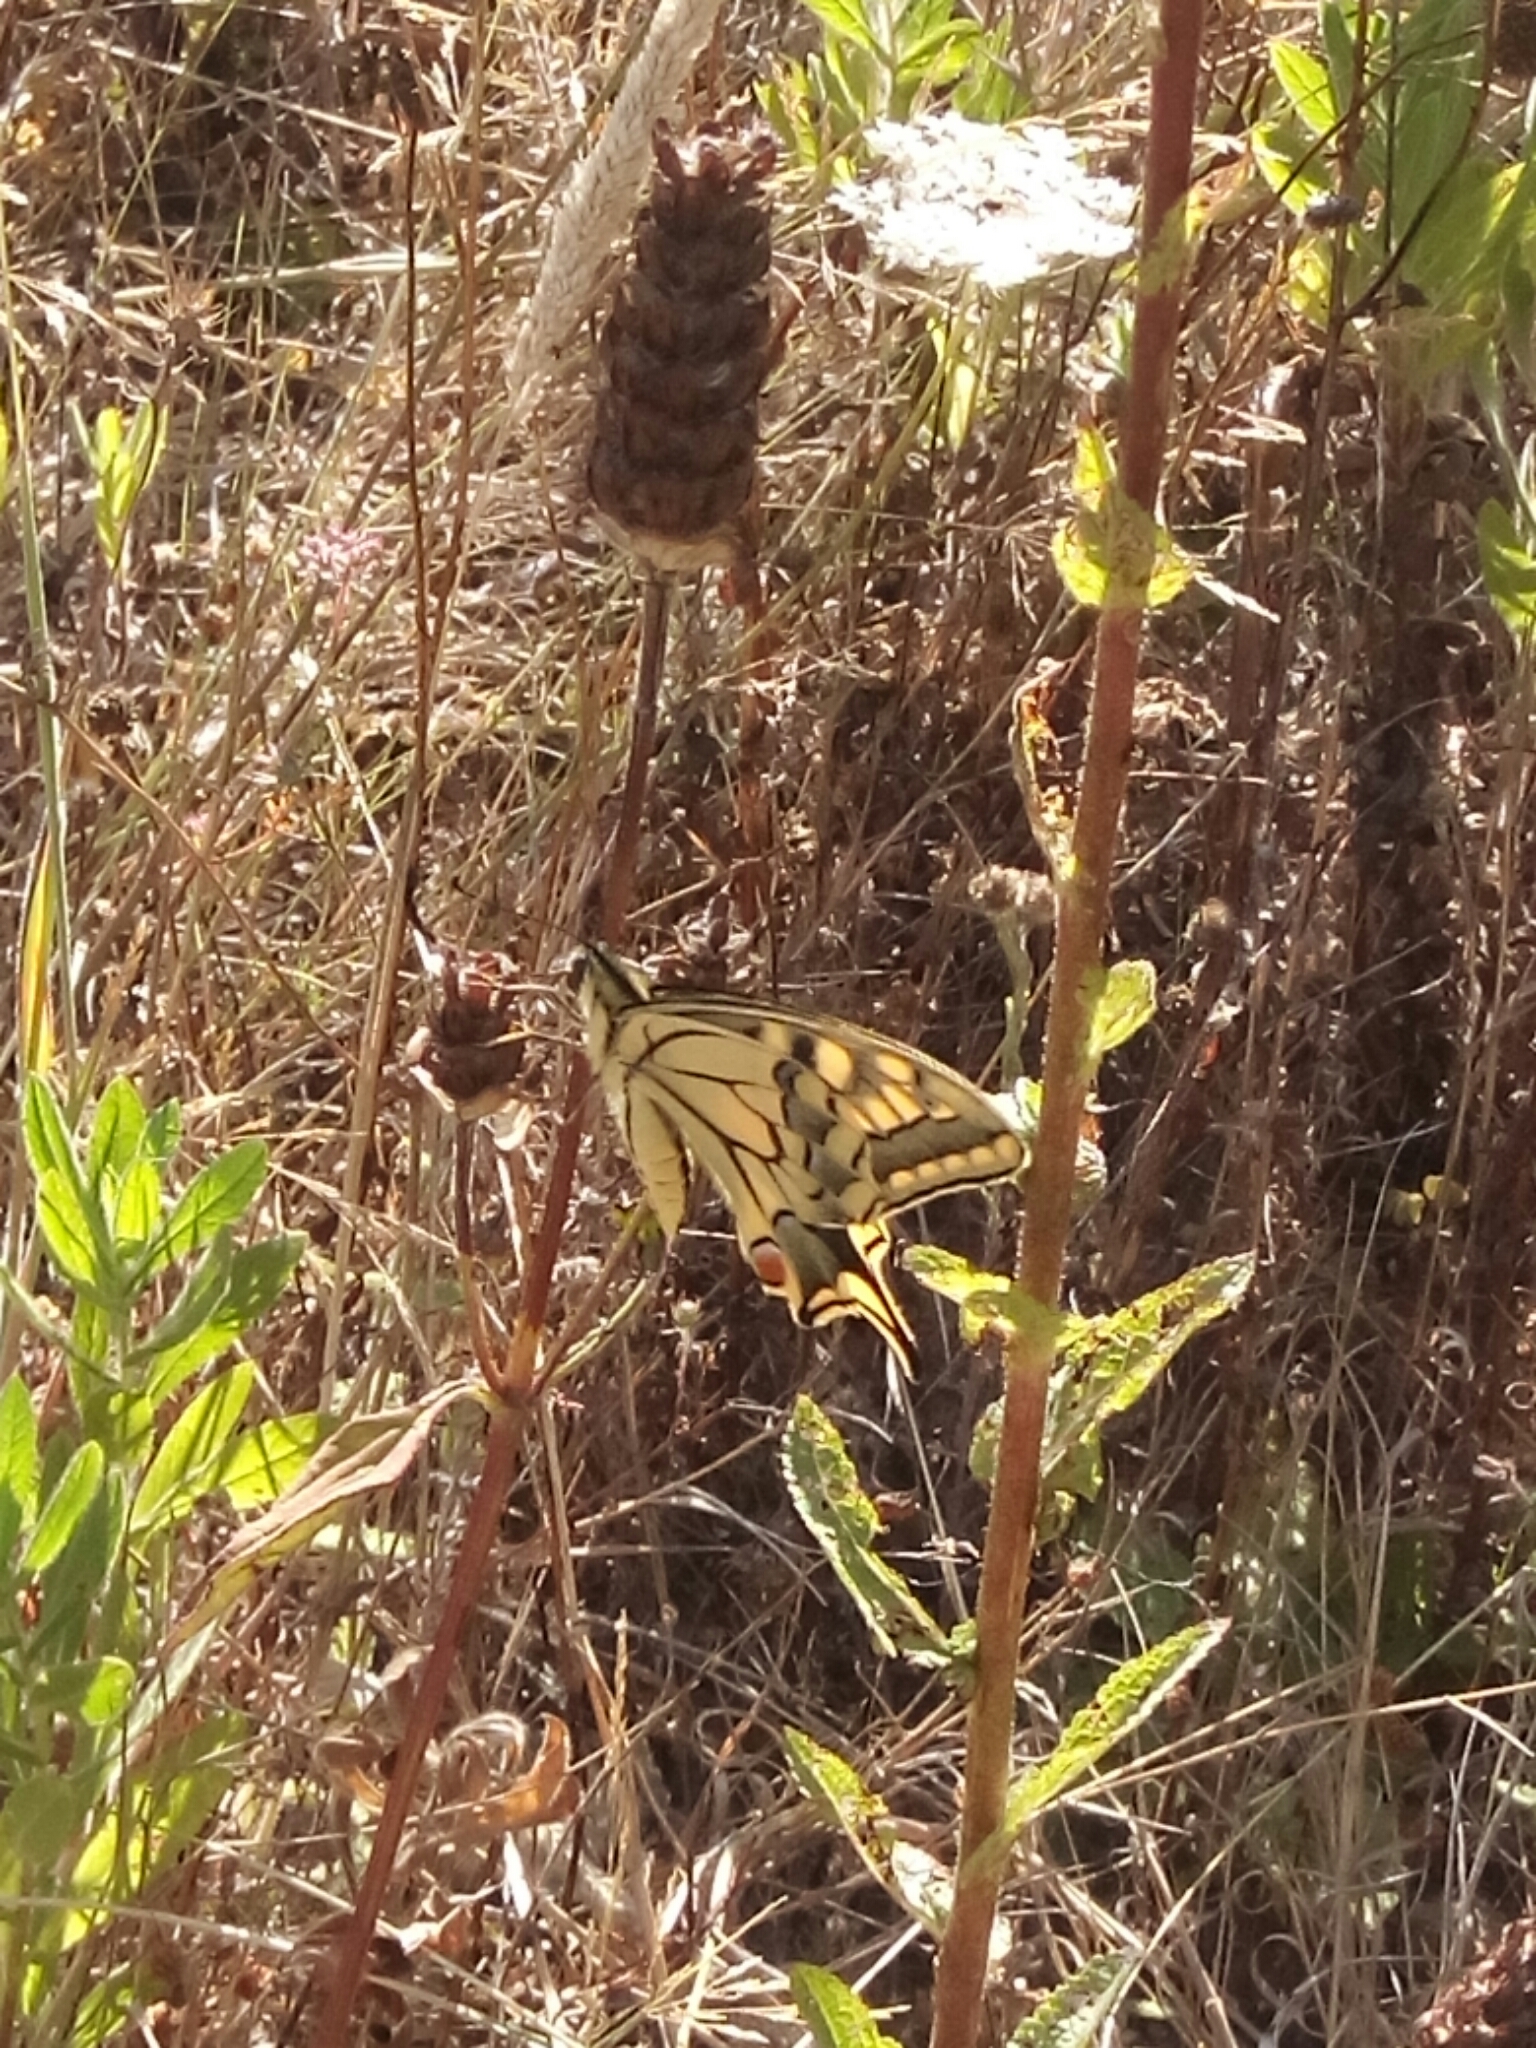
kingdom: Animalia
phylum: Arthropoda
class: Insecta
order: Lepidoptera
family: Papilionidae
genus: Papilio
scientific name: Papilio machaon
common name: Swallowtail
